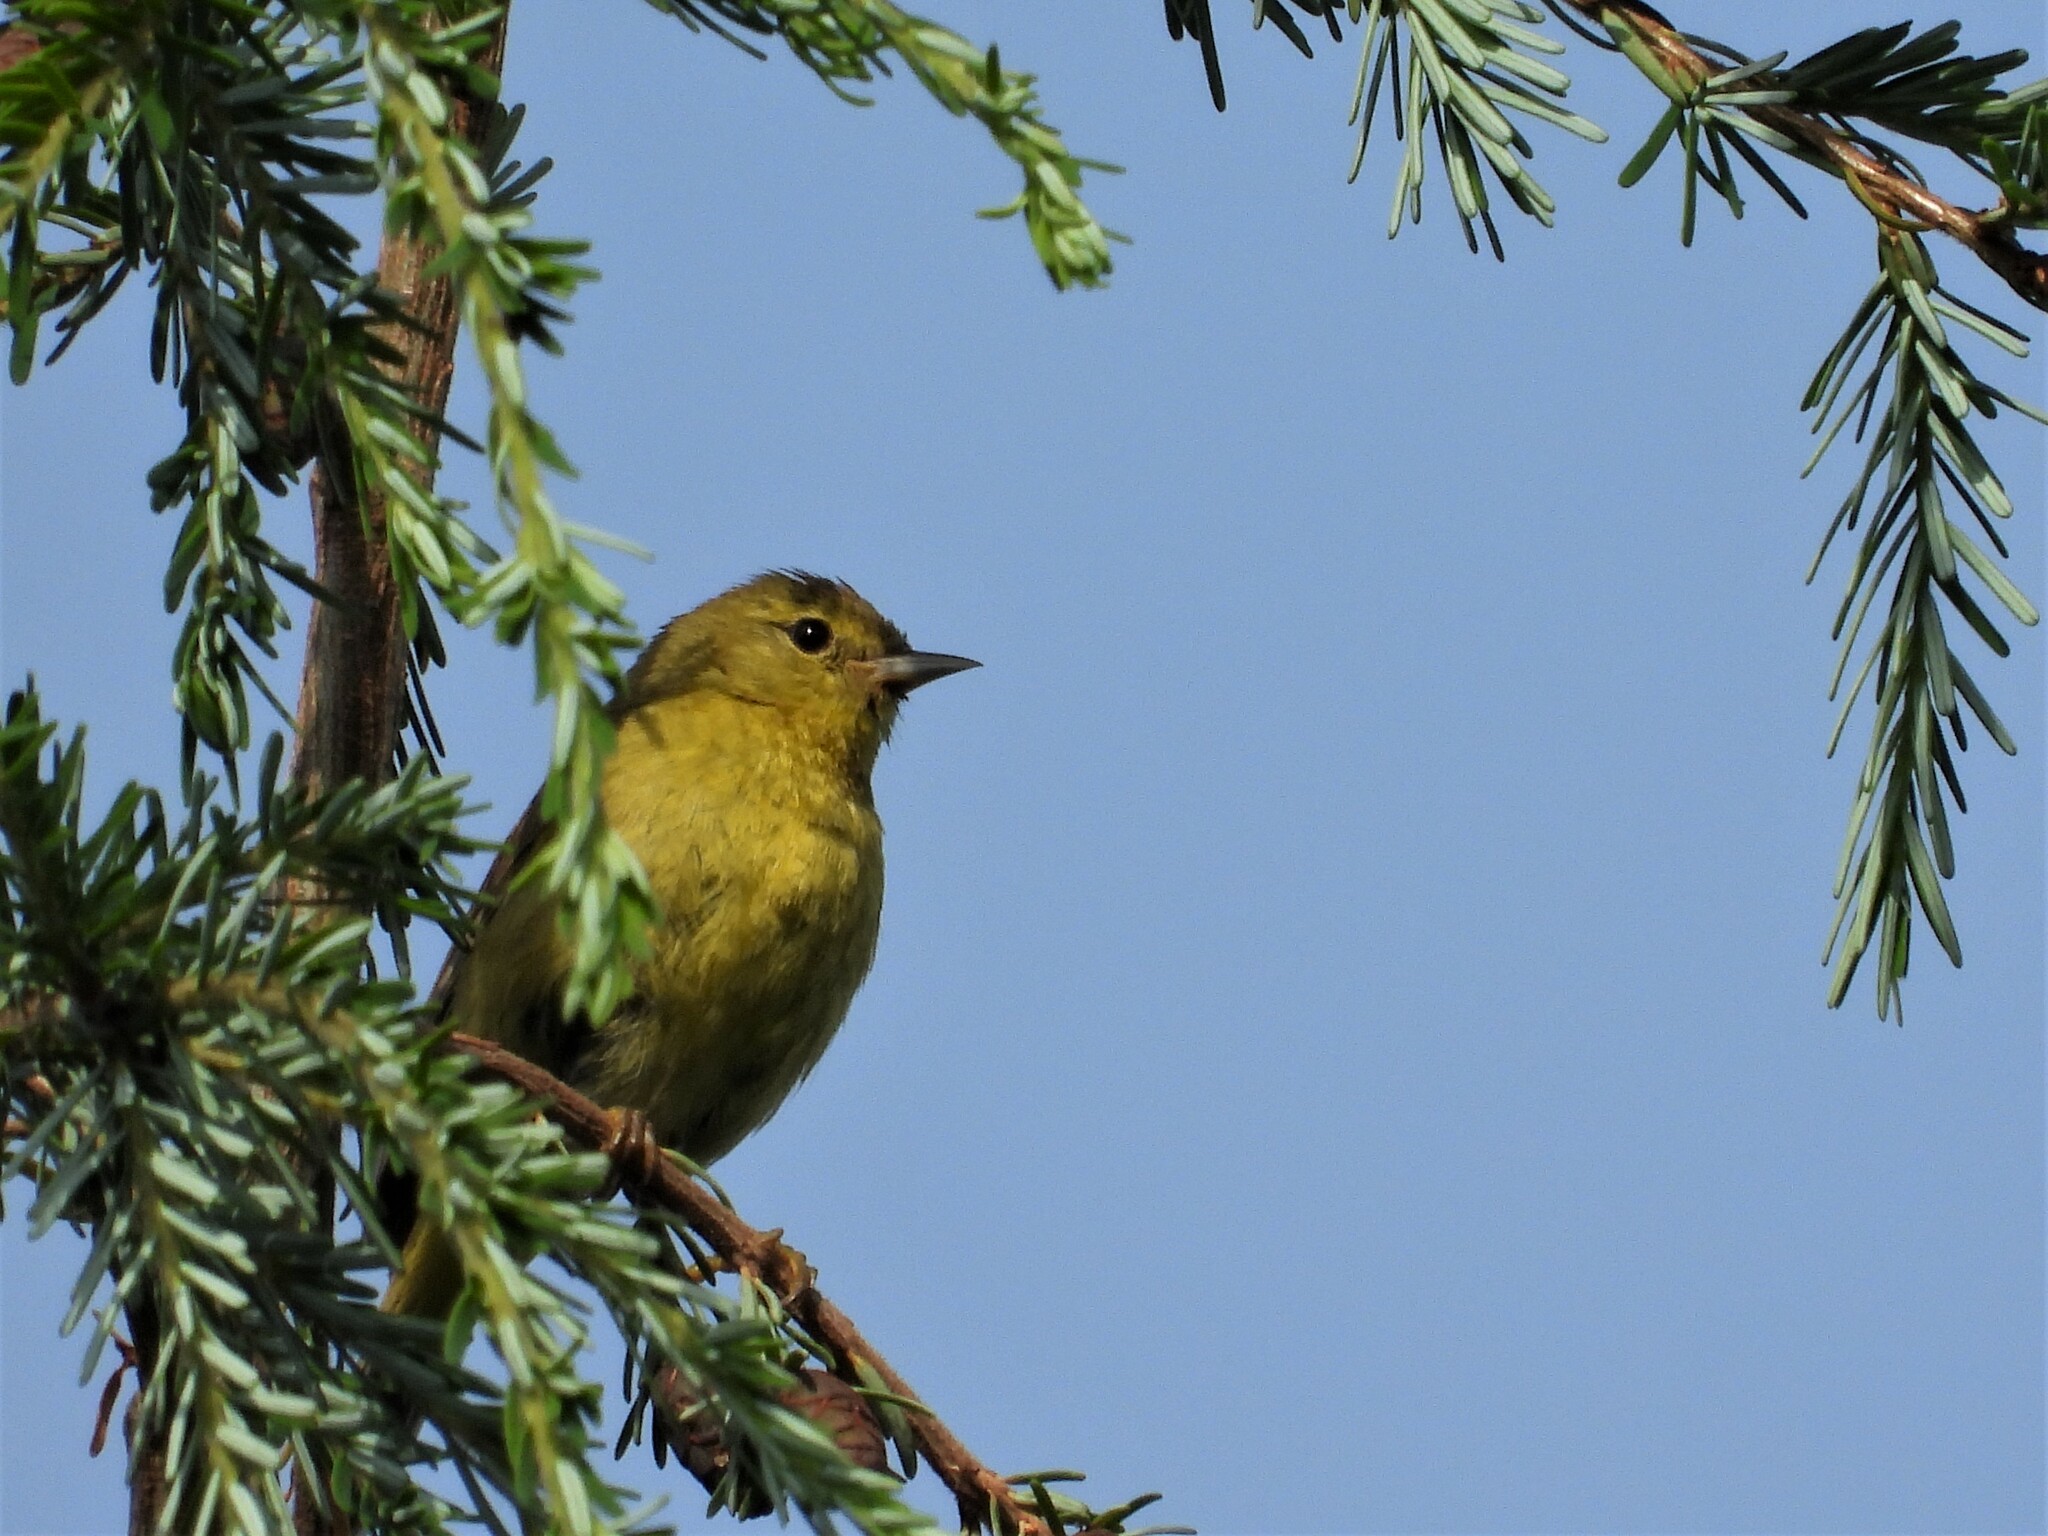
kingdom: Animalia
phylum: Chordata
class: Aves
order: Passeriformes
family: Parulidae
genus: Leiothlypis
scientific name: Leiothlypis celata
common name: Orange-crowned warbler
